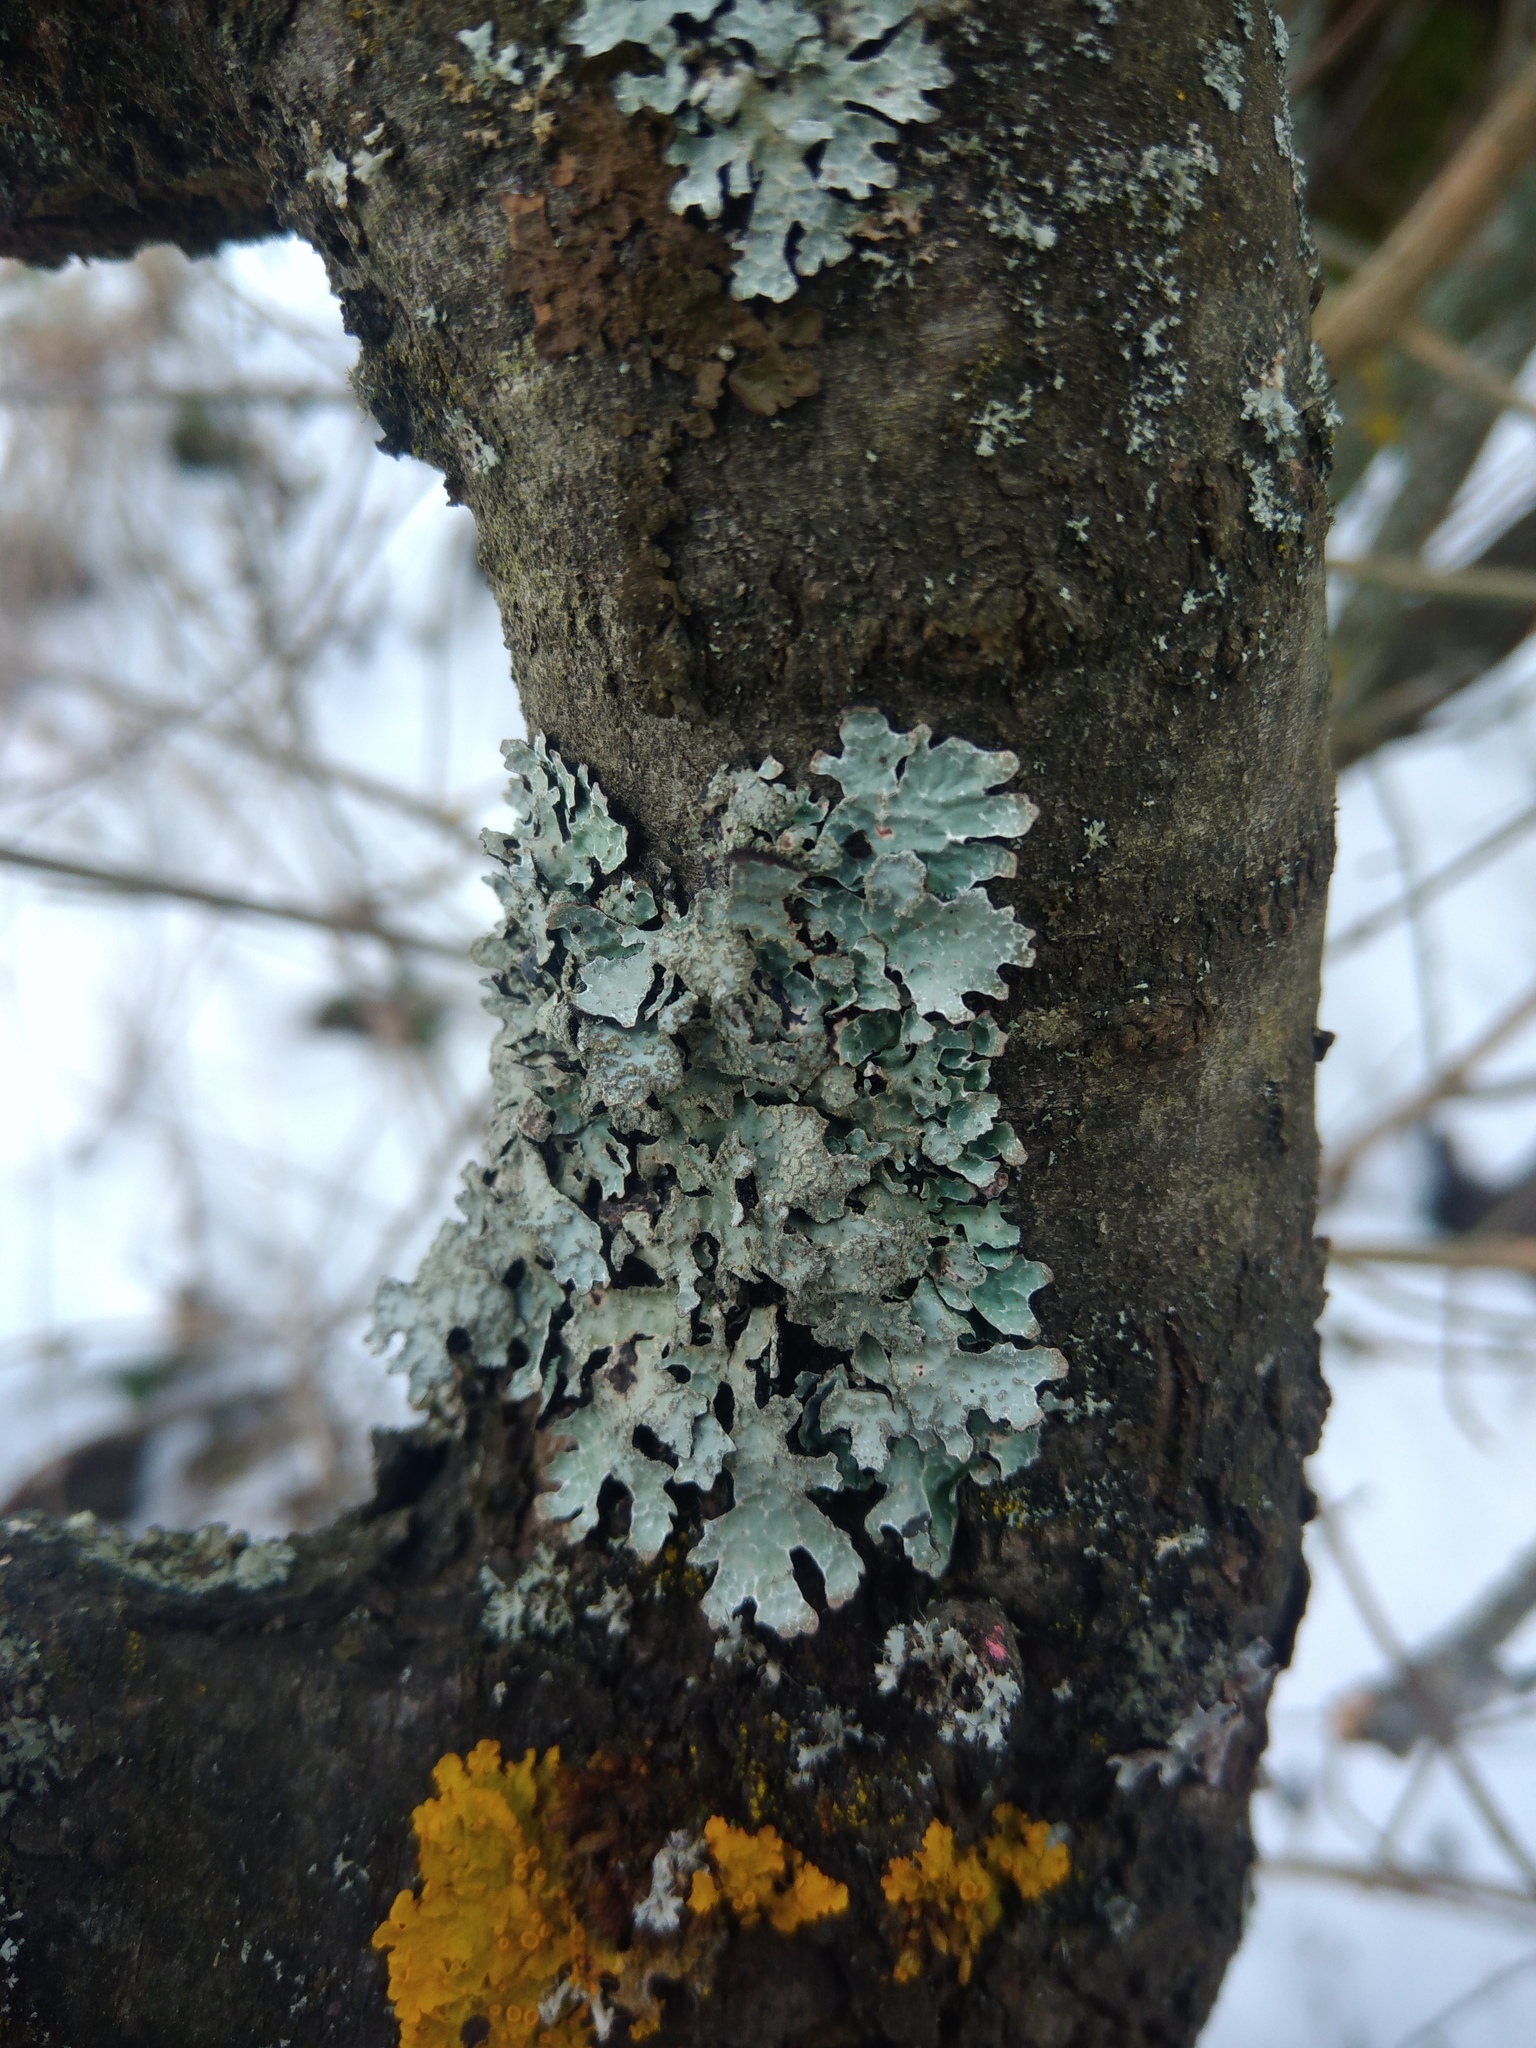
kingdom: Fungi
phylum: Ascomycota
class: Lecanoromycetes
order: Lecanorales
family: Parmeliaceae
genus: Parmelia
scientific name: Parmelia sulcata
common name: Netted shield lichen
